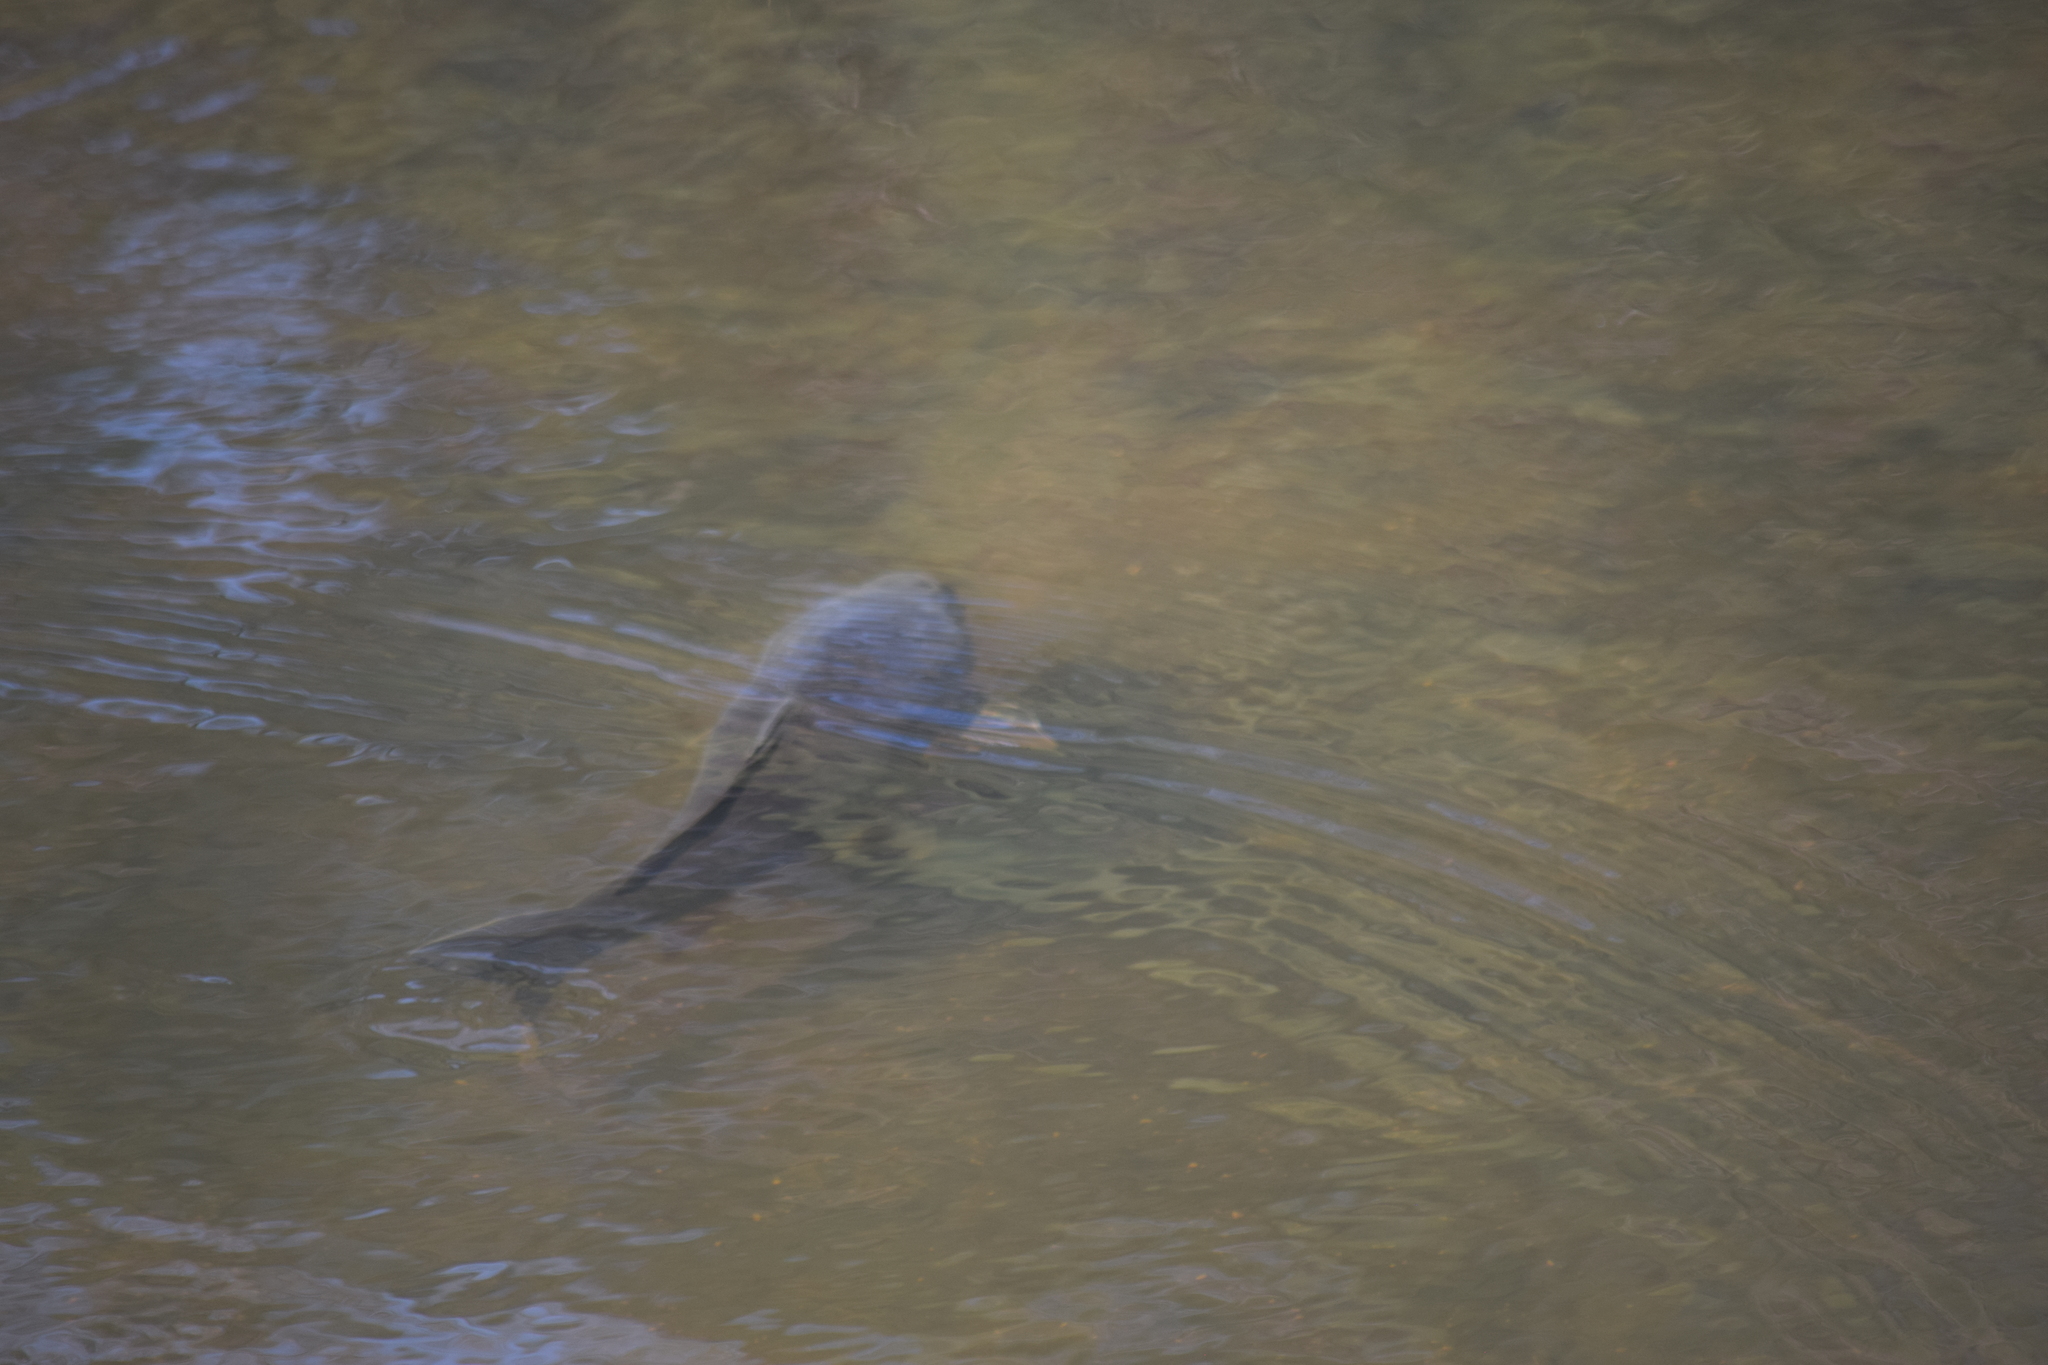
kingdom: Animalia
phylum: Chordata
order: Cypriniformes
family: Cyprinidae
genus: Cyprinus
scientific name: Cyprinus carpio
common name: Common carp
